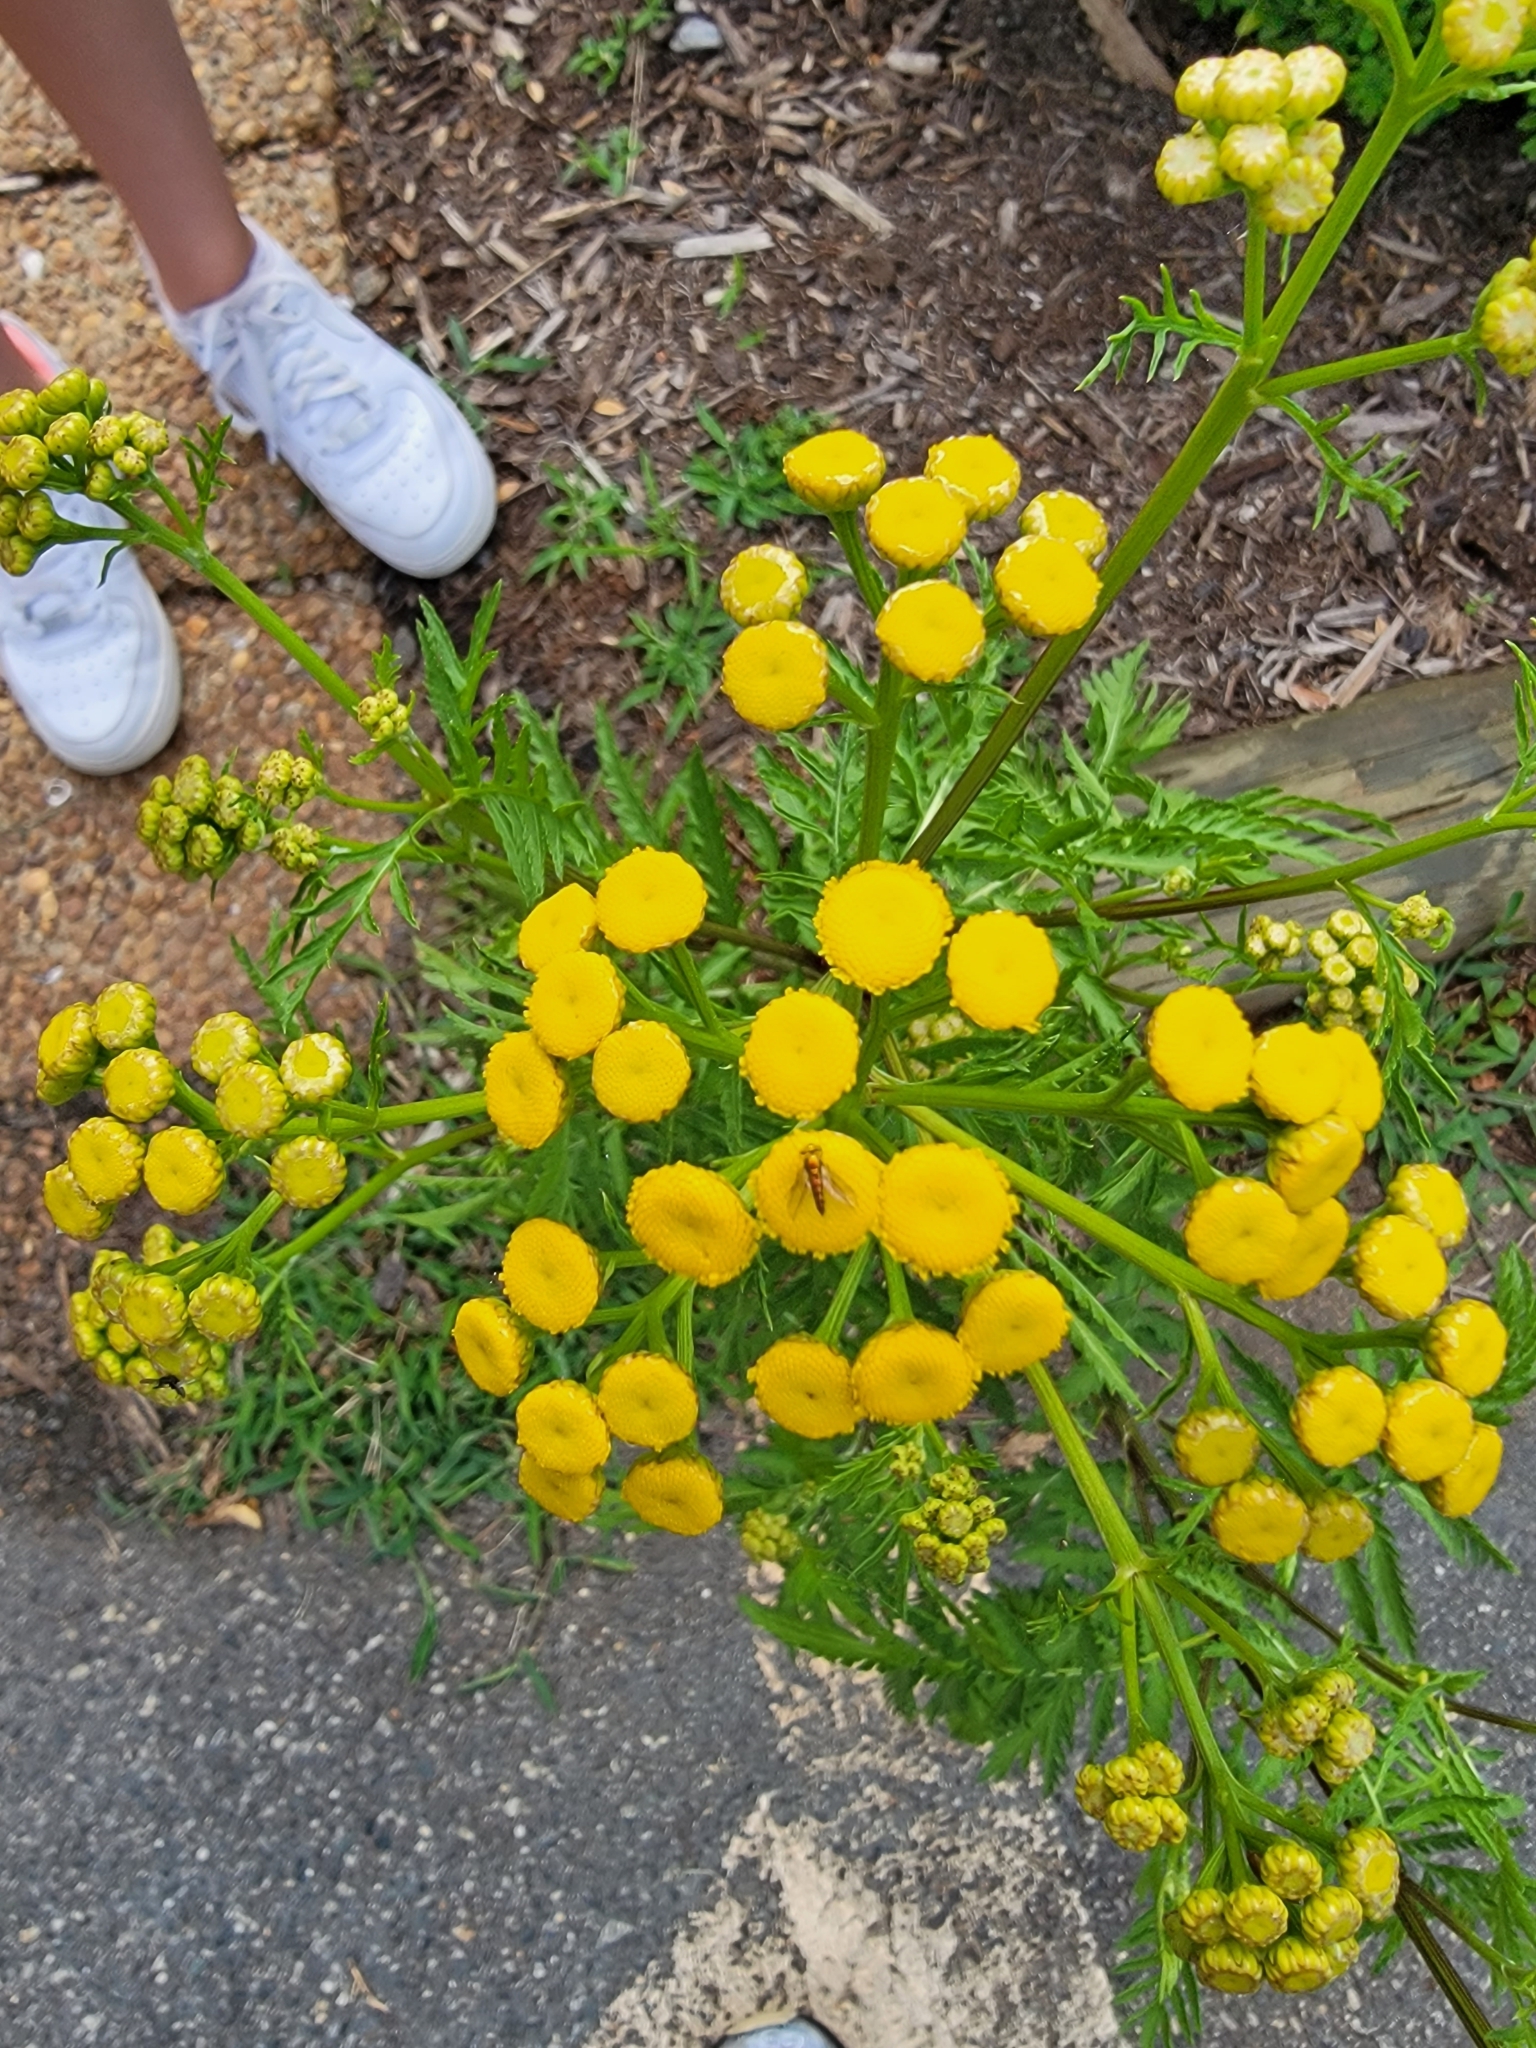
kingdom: Plantae
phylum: Tracheophyta
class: Magnoliopsida
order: Asterales
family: Asteraceae
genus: Tanacetum
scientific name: Tanacetum vulgare
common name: Common tansy
